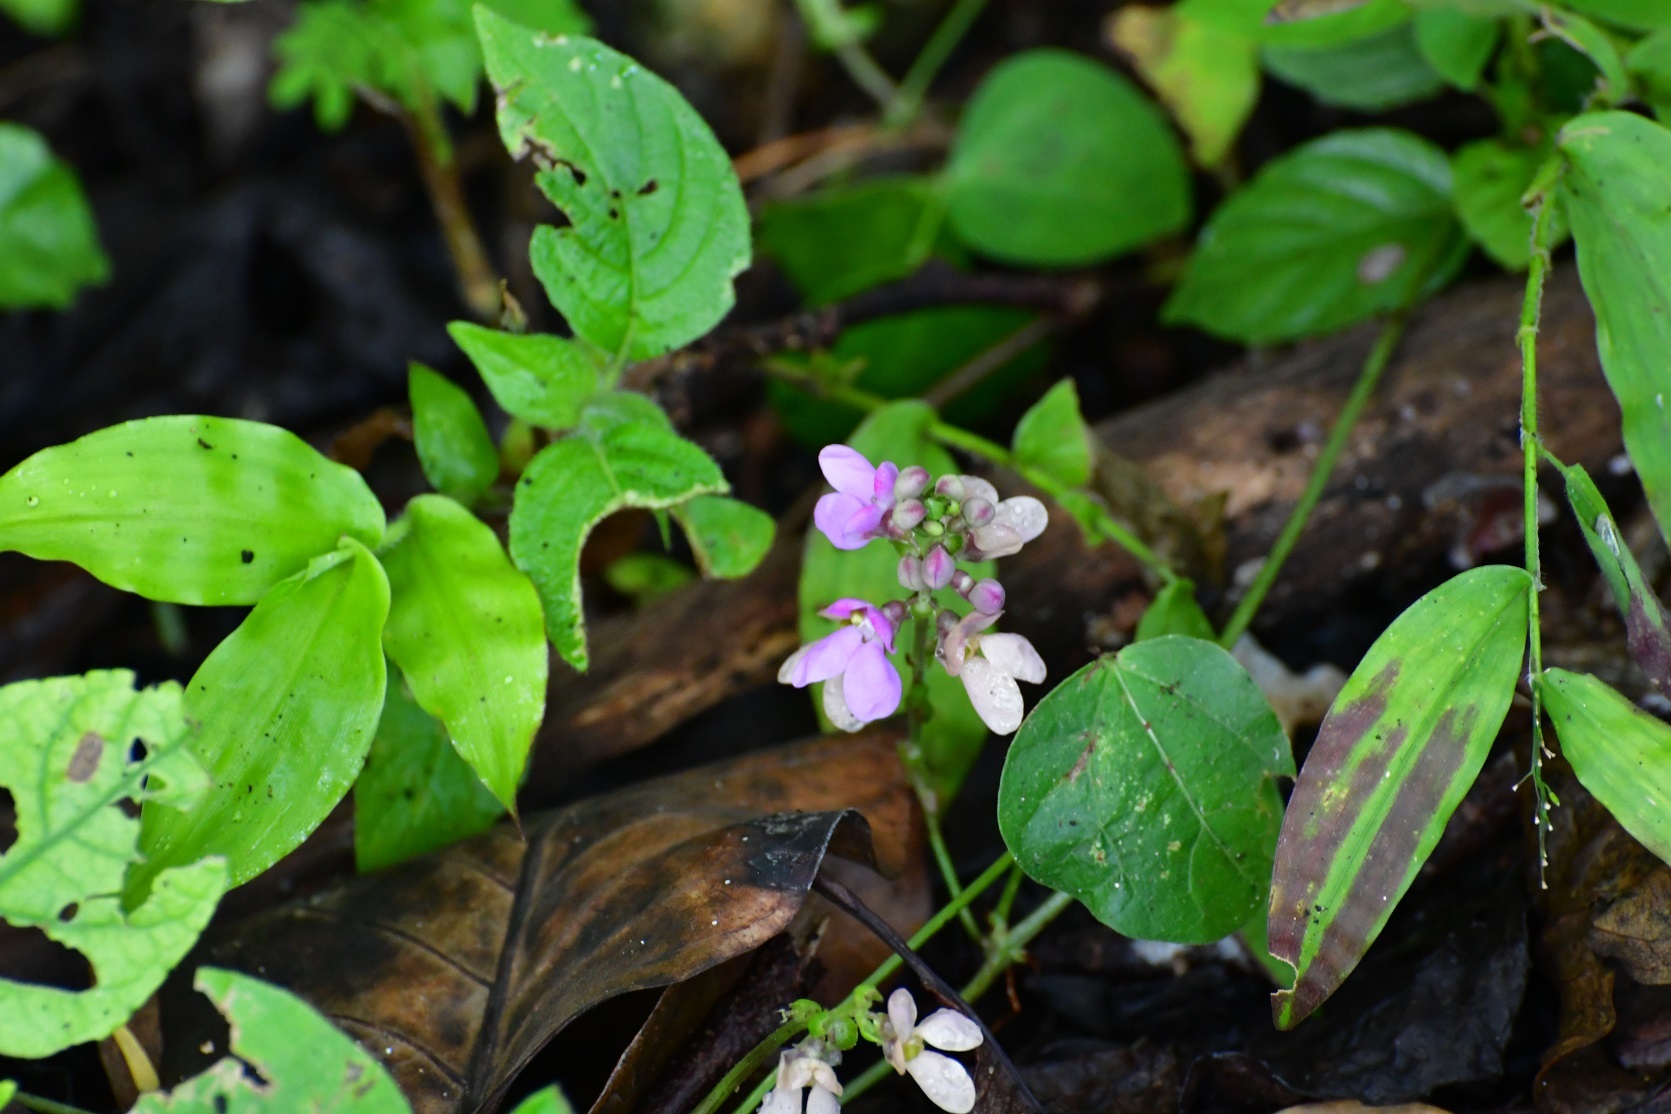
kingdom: Plantae
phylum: Tracheophyta
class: Magnoliopsida
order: Fabales
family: Fabaceae
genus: Phaseolus
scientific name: Phaseolus microcarpus
